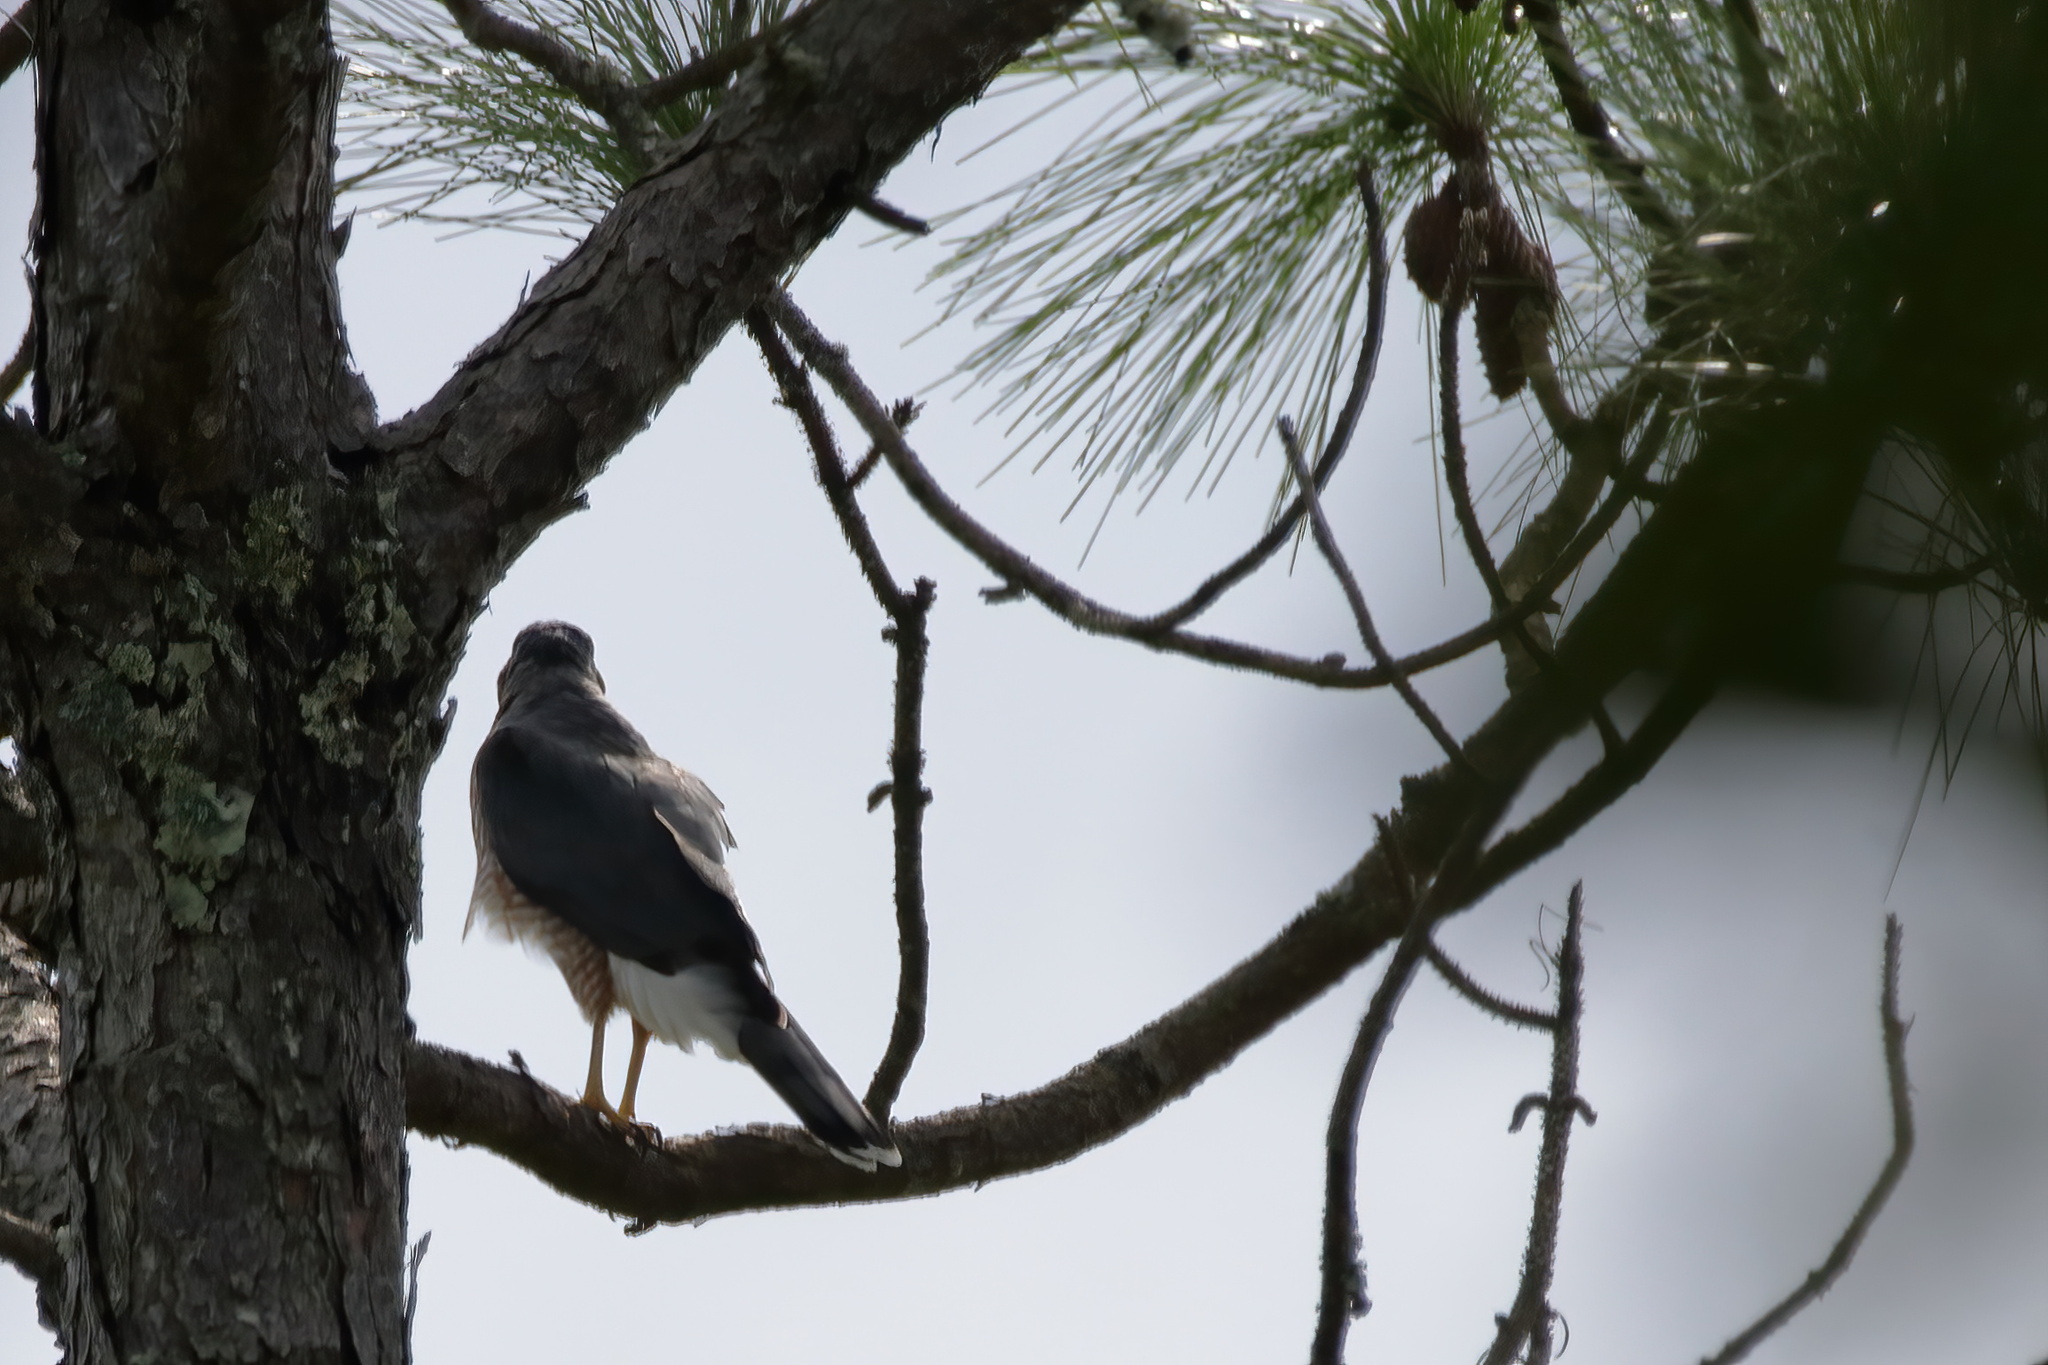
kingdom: Animalia
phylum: Chordata
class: Aves
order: Accipitriformes
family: Accipitridae
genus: Accipiter
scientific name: Accipiter cooperii
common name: Cooper's hawk
